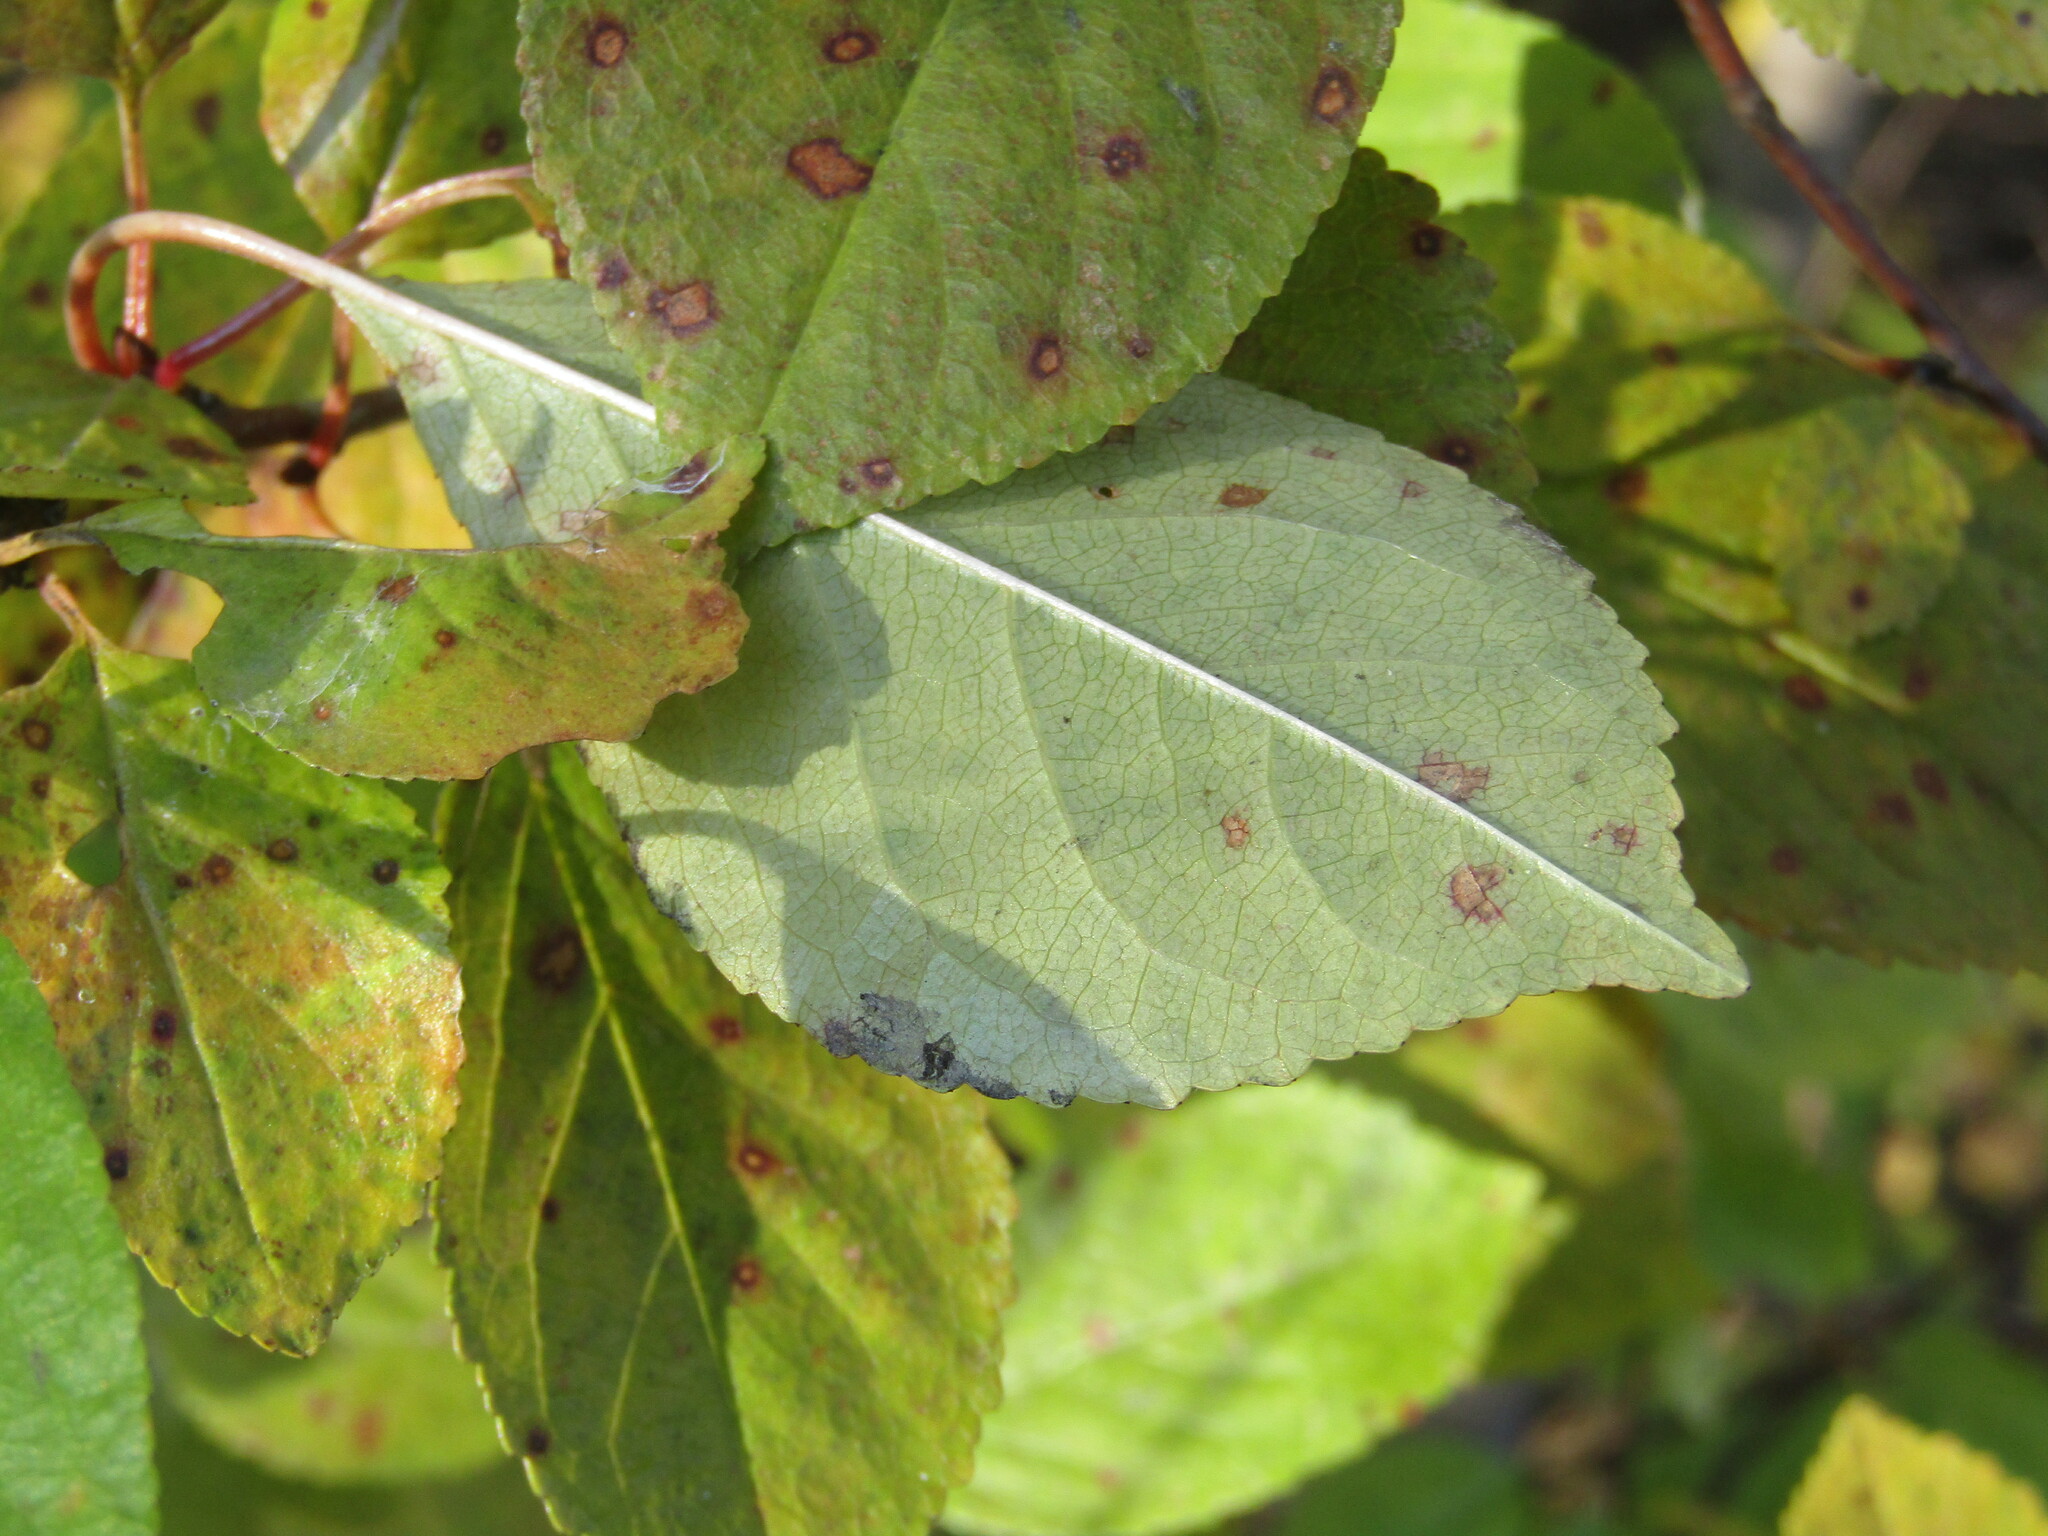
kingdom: Plantae
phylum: Tracheophyta
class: Magnoliopsida
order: Rosales
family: Rosaceae
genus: Prunus
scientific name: Prunus cerasus
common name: Morello cherry
